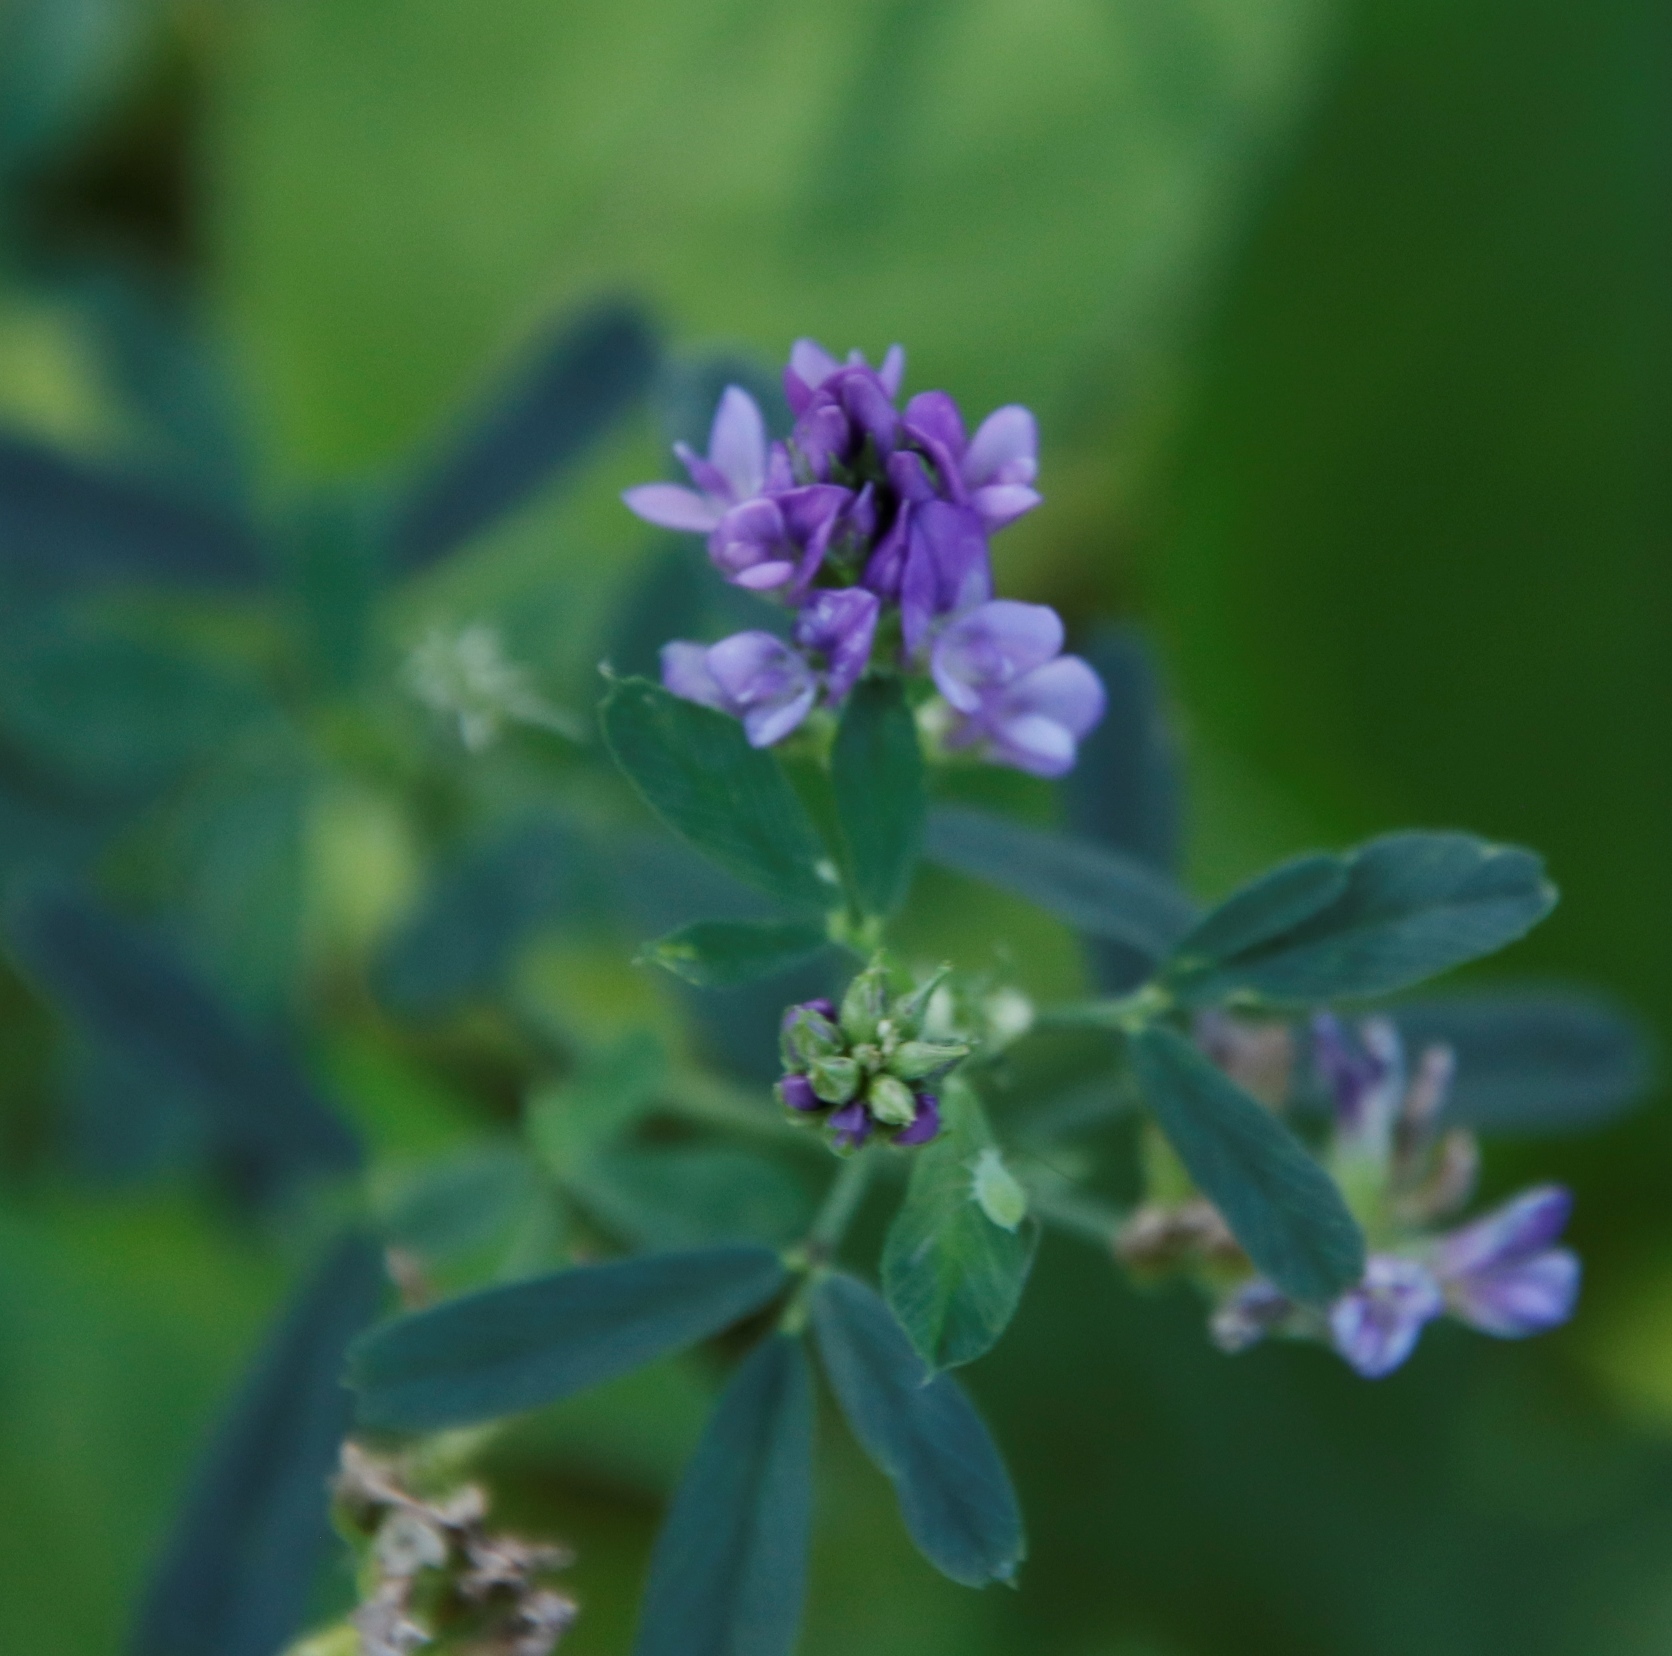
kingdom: Plantae
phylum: Tracheophyta
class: Magnoliopsida
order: Fabales
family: Fabaceae
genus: Medicago
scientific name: Medicago sativa
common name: Alfalfa
